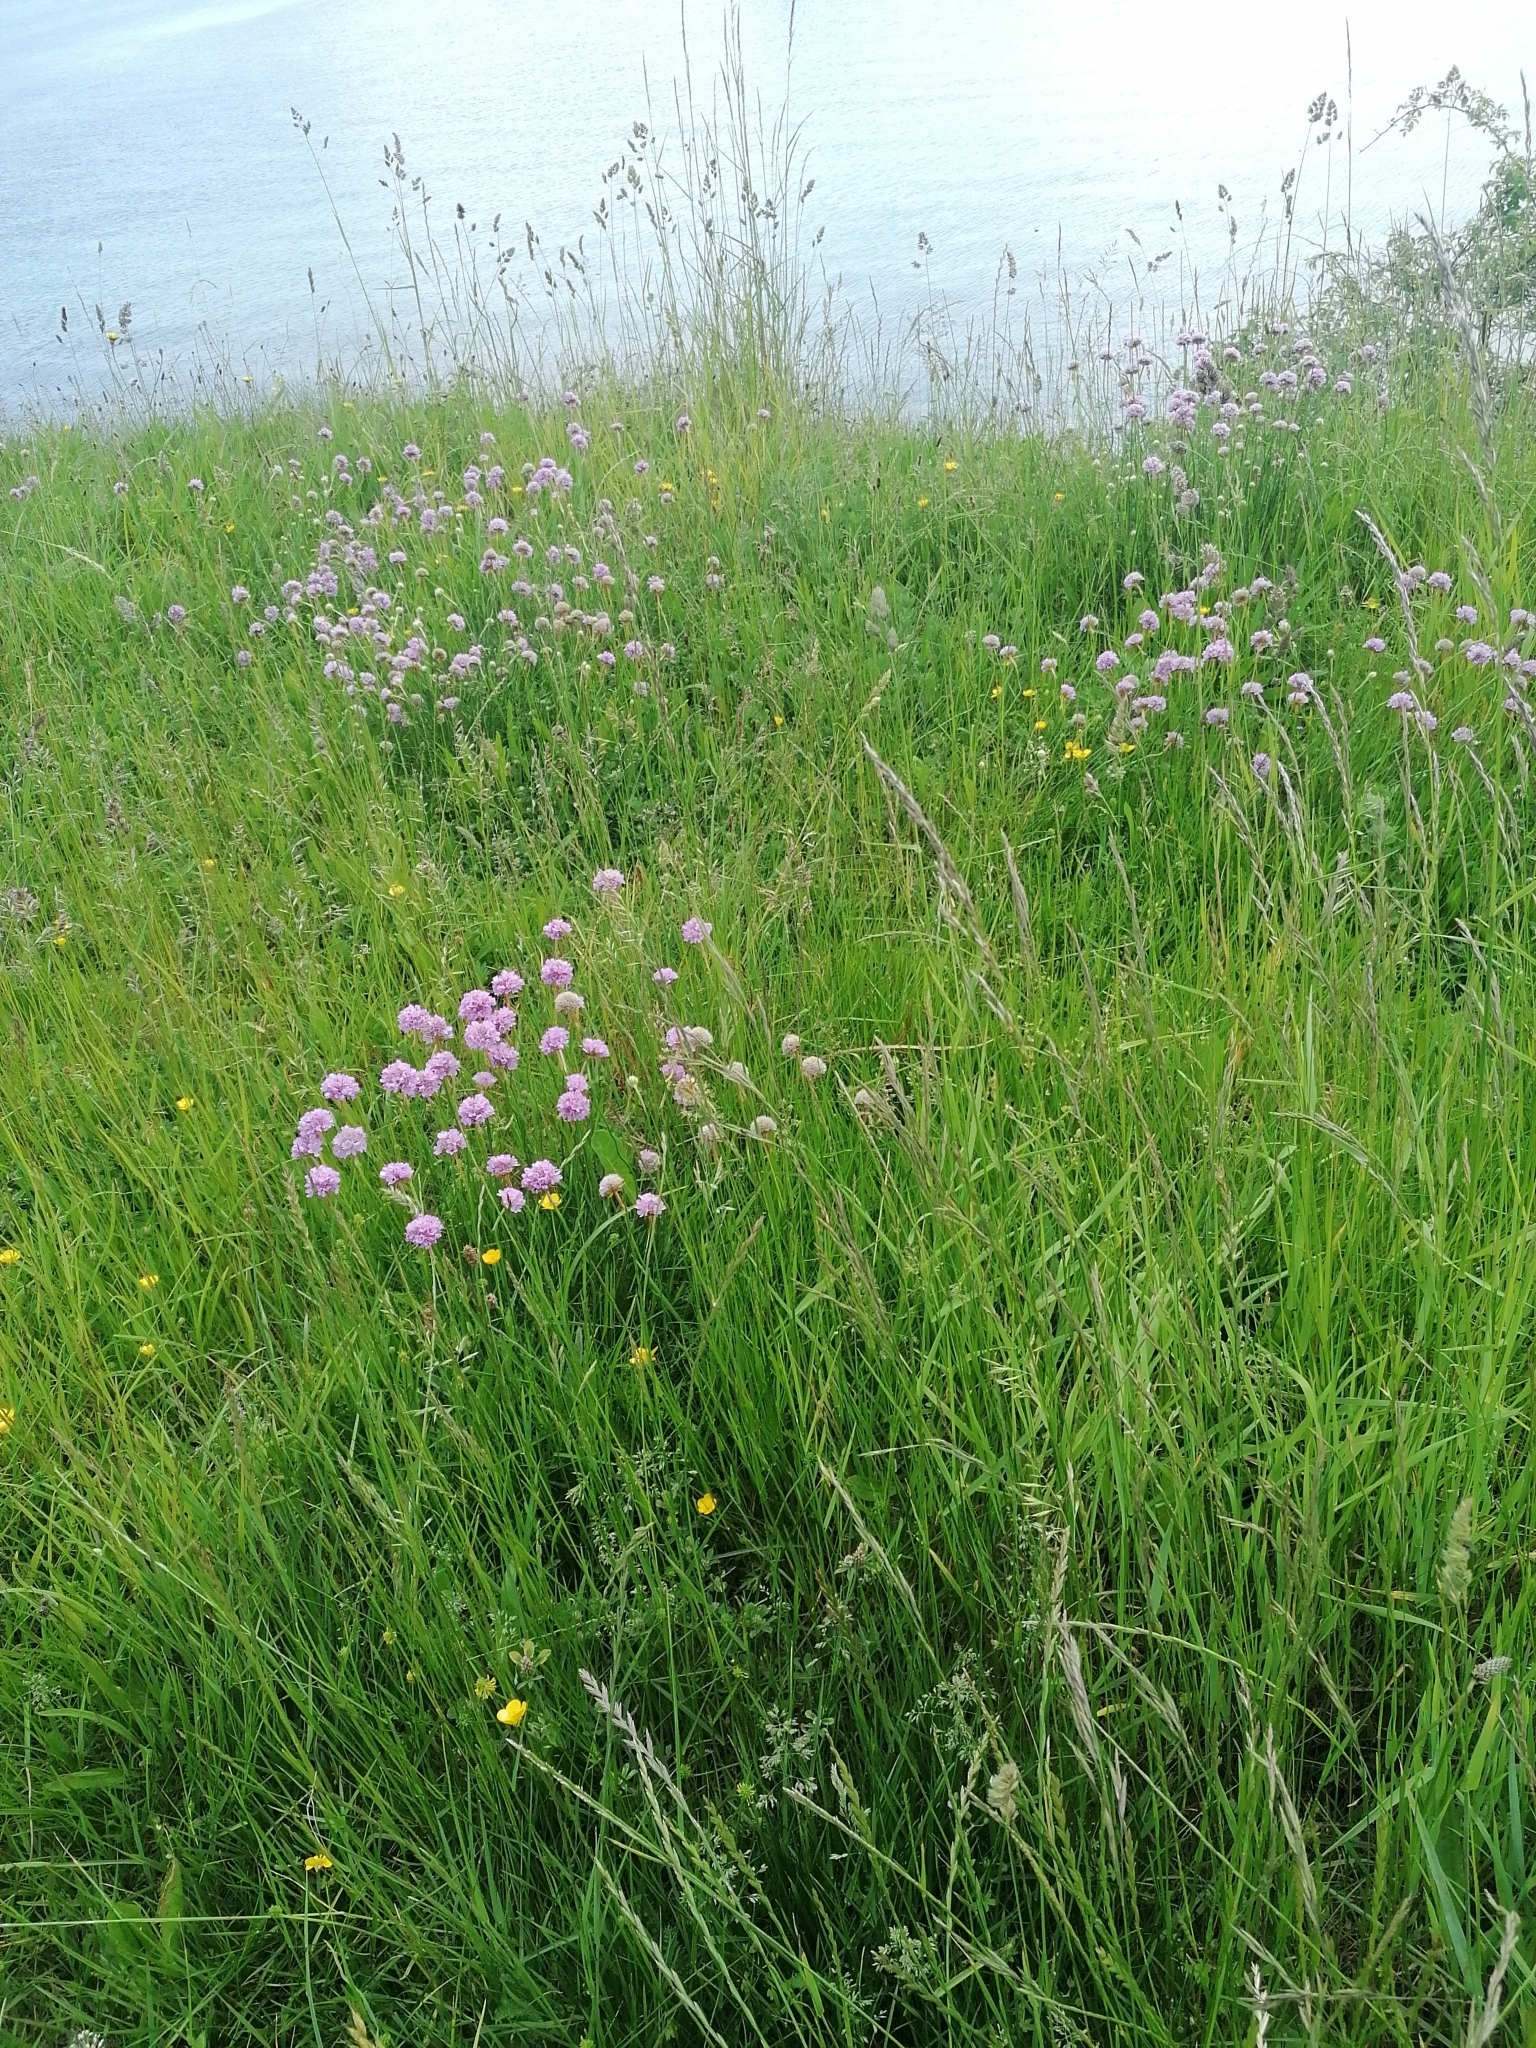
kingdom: Plantae
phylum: Tracheophyta
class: Magnoliopsida
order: Caryophyllales
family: Plumbaginaceae
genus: Armeria
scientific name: Armeria maritima
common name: Thrift
